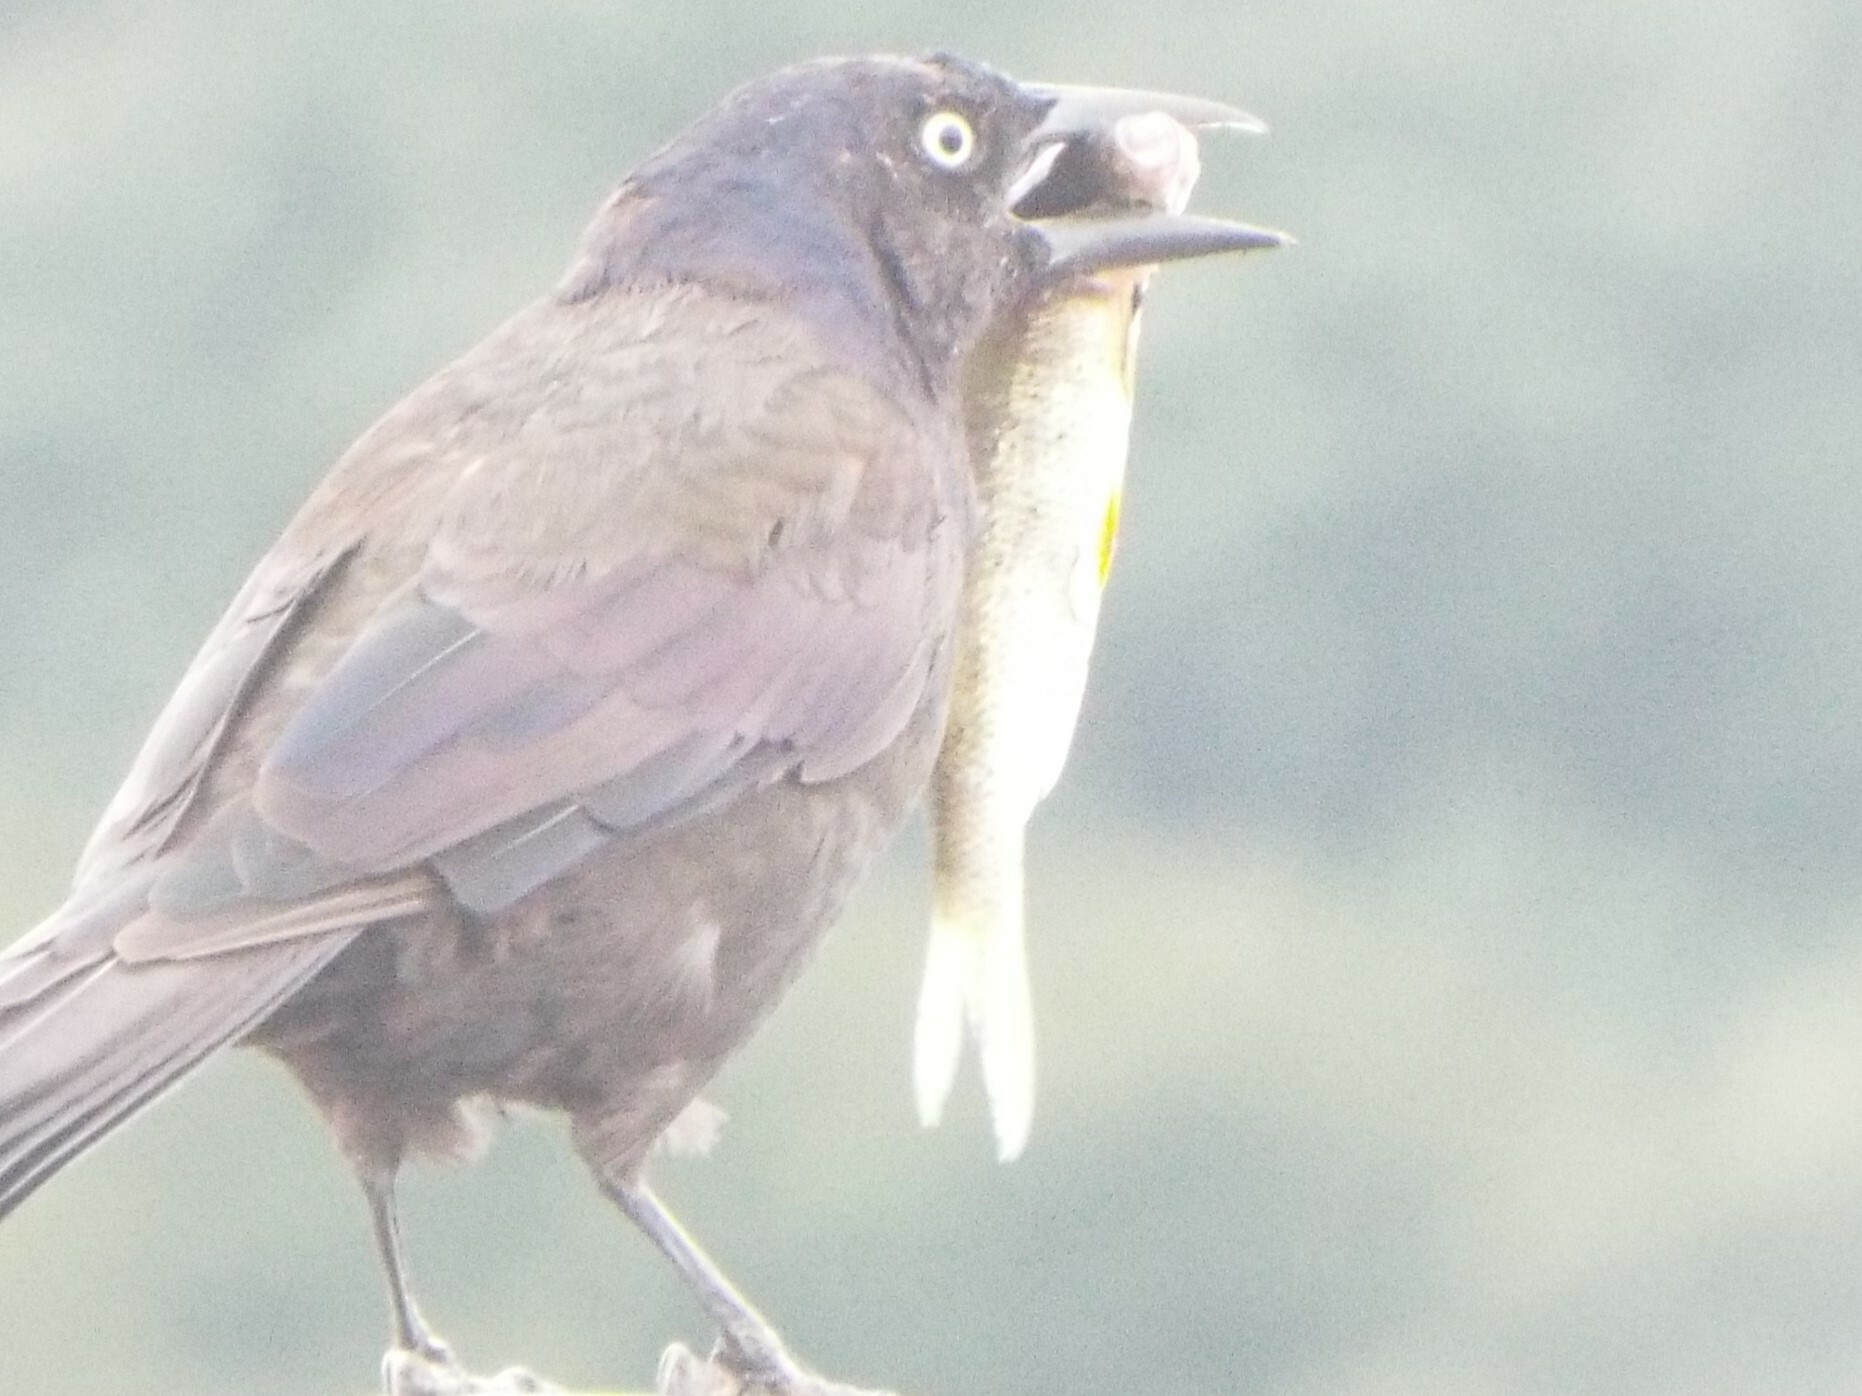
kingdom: Animalia
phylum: Chordata
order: Cypriniformes
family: Cyprinidae
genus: Notemigonus
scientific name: Notemigonus crysoleucas
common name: Golden shiner
